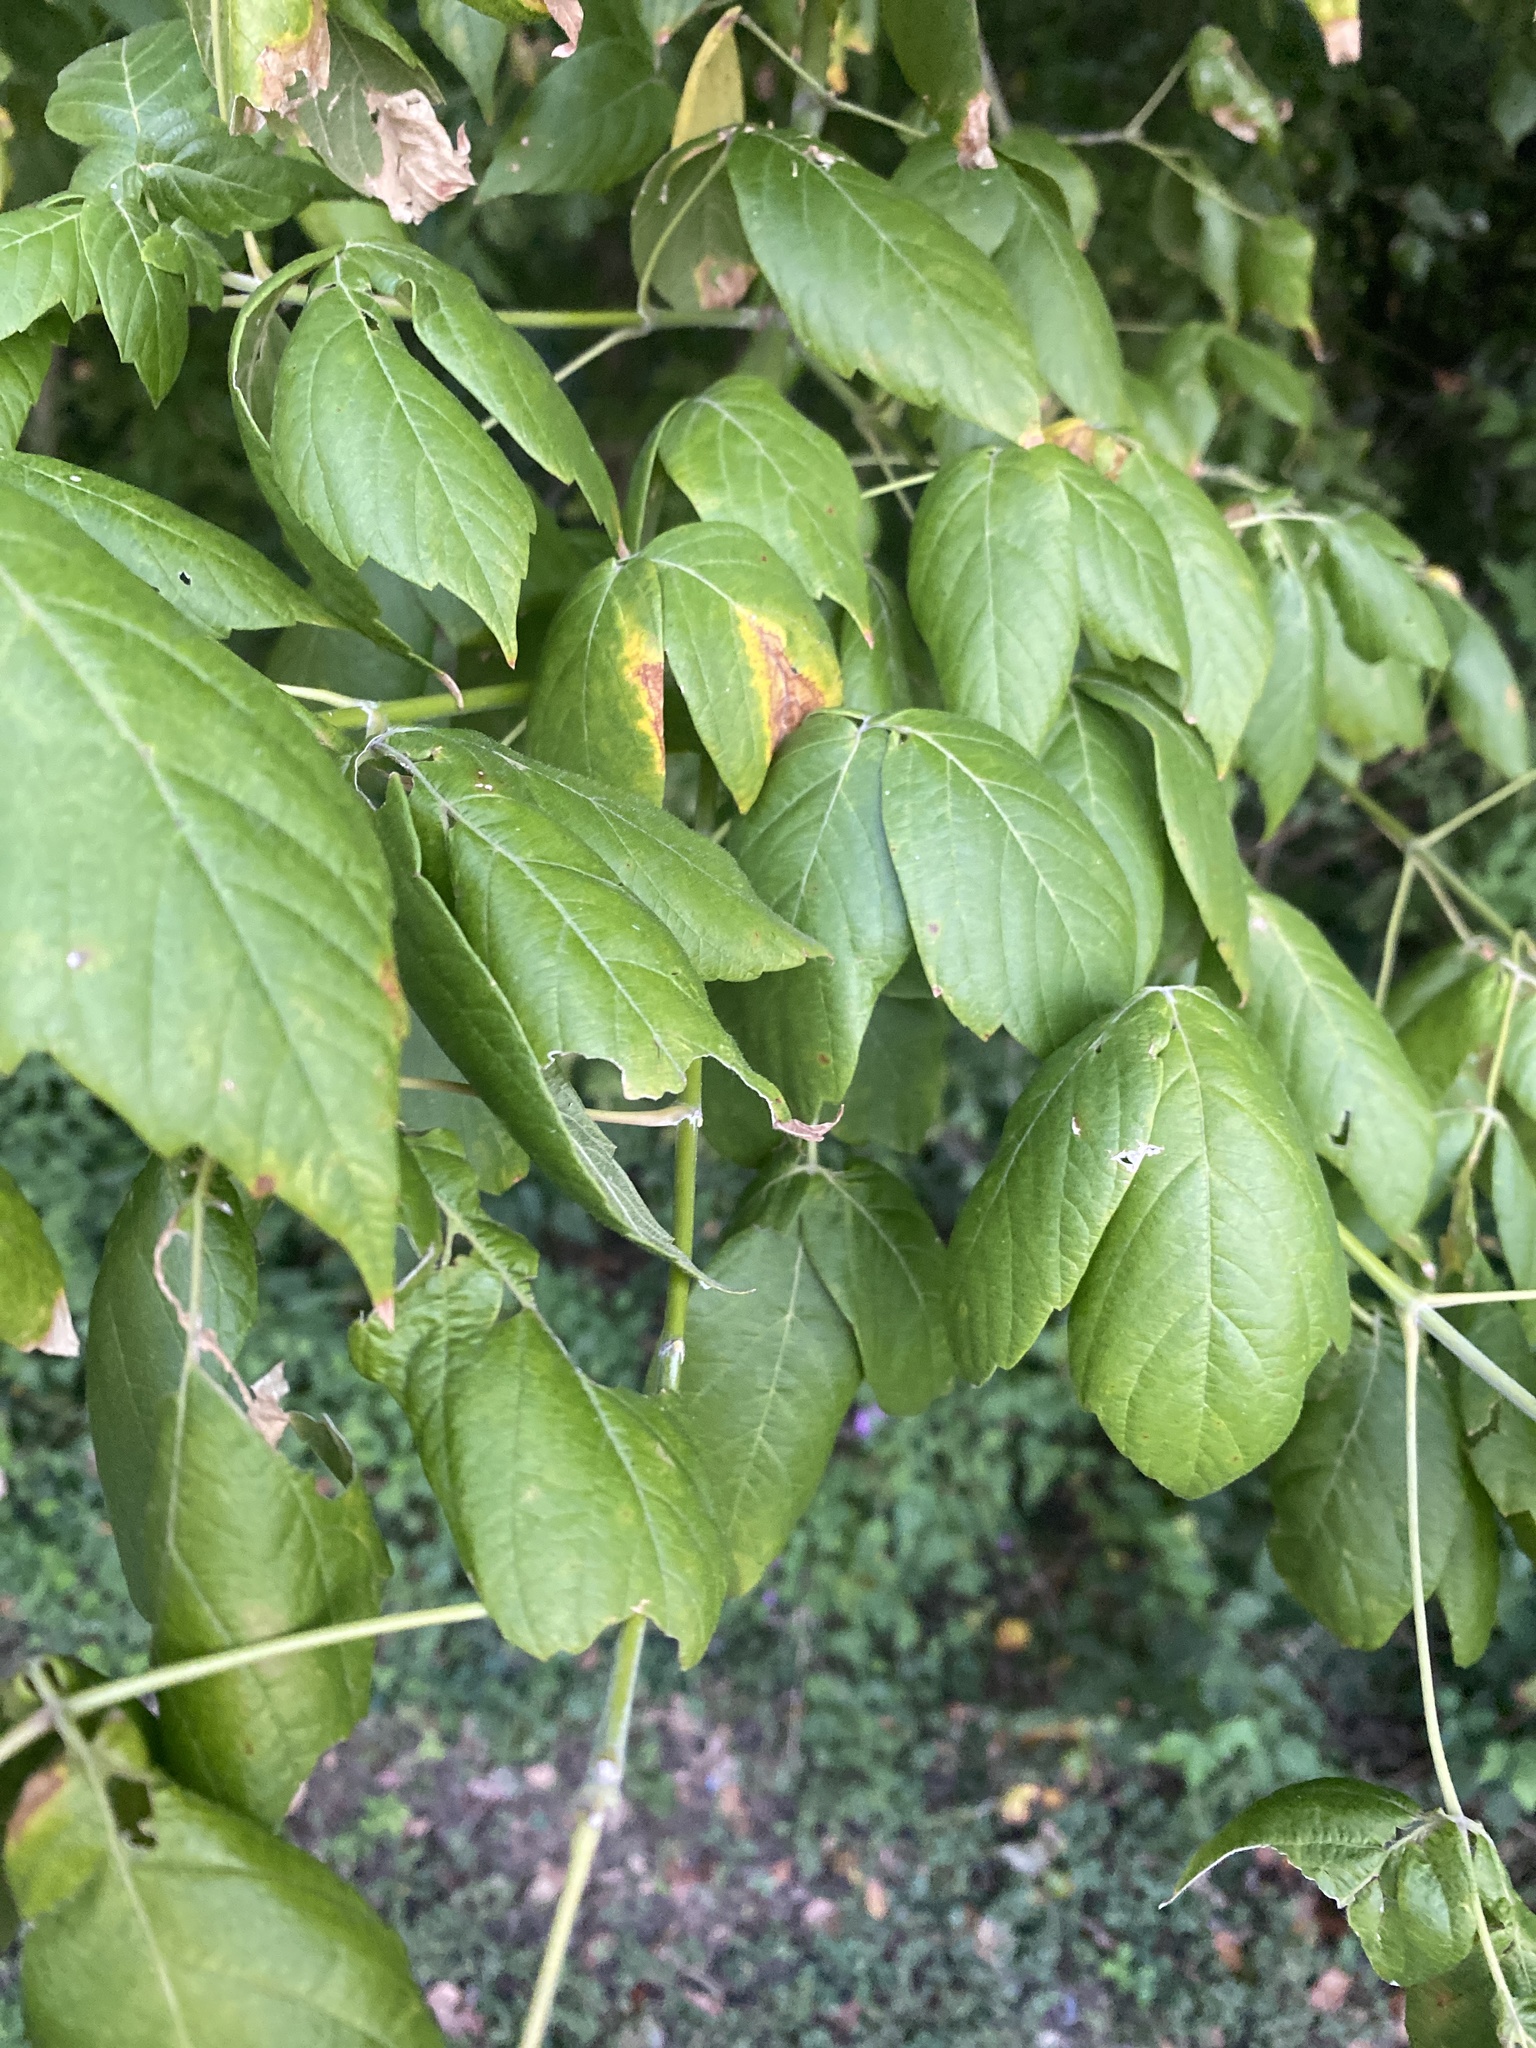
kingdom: Plantae
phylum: Tracheophyta
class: Magnoliopsida
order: Sapindales
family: Sapindaceae
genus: Acer
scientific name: Acer negundo
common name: Ashleaf maple
